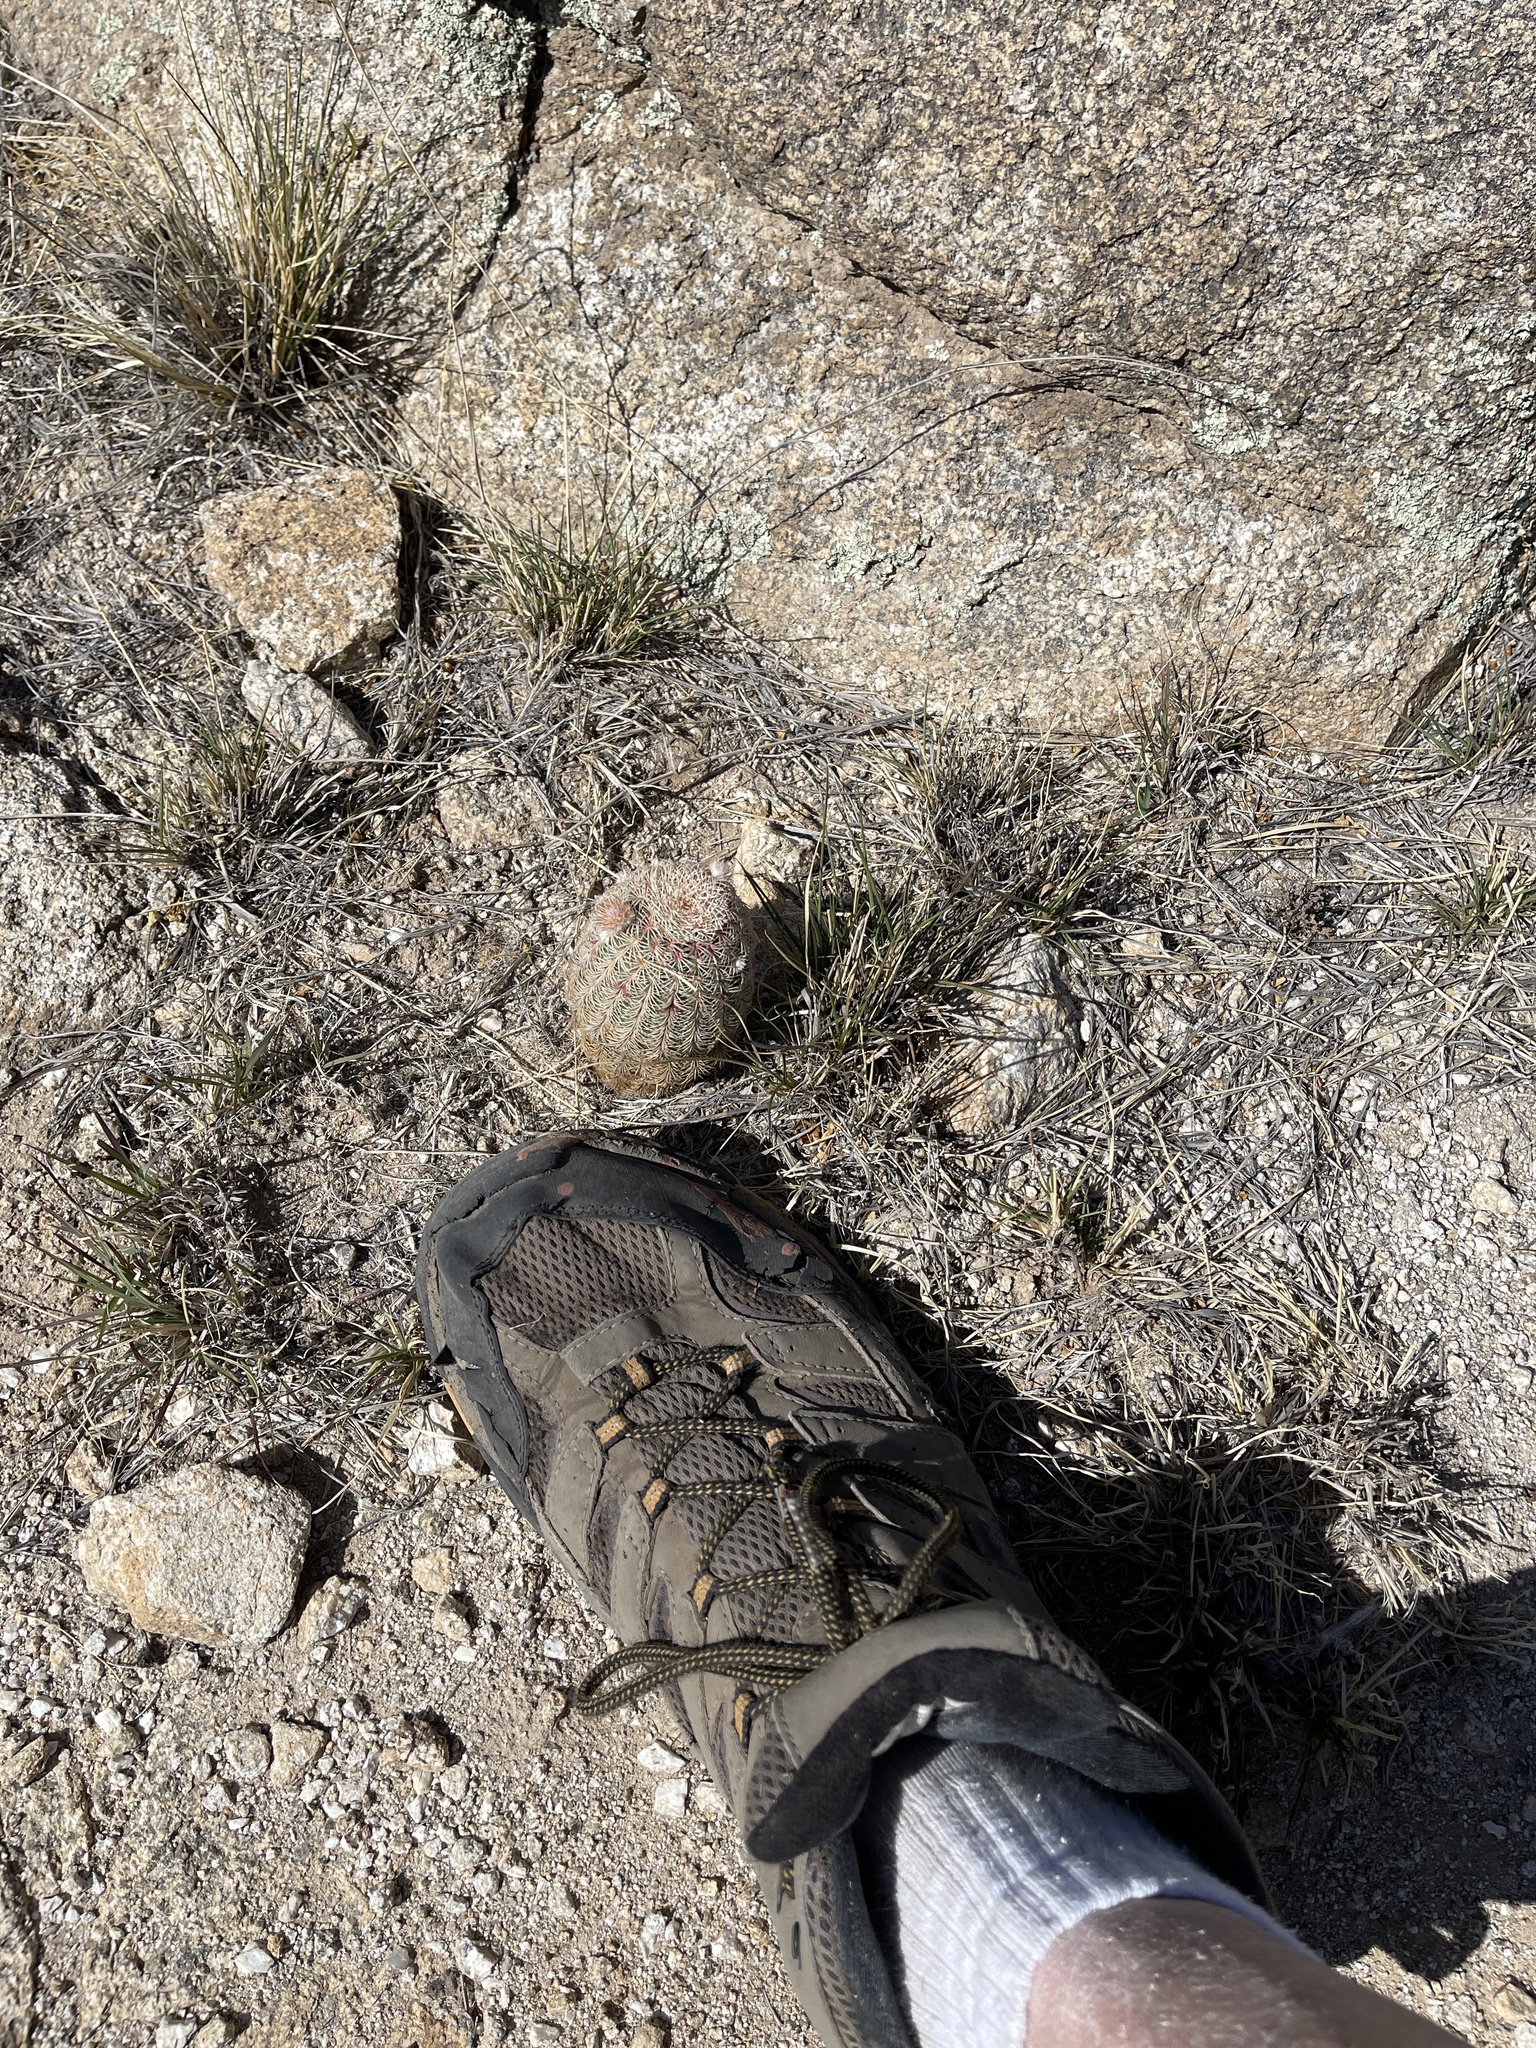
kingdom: Plantae
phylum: Tracheophyta
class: Magnoliopsida
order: Caryophyllales
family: Cactaceae
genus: Echinocereus
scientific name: Echinocereus rigidissimus
